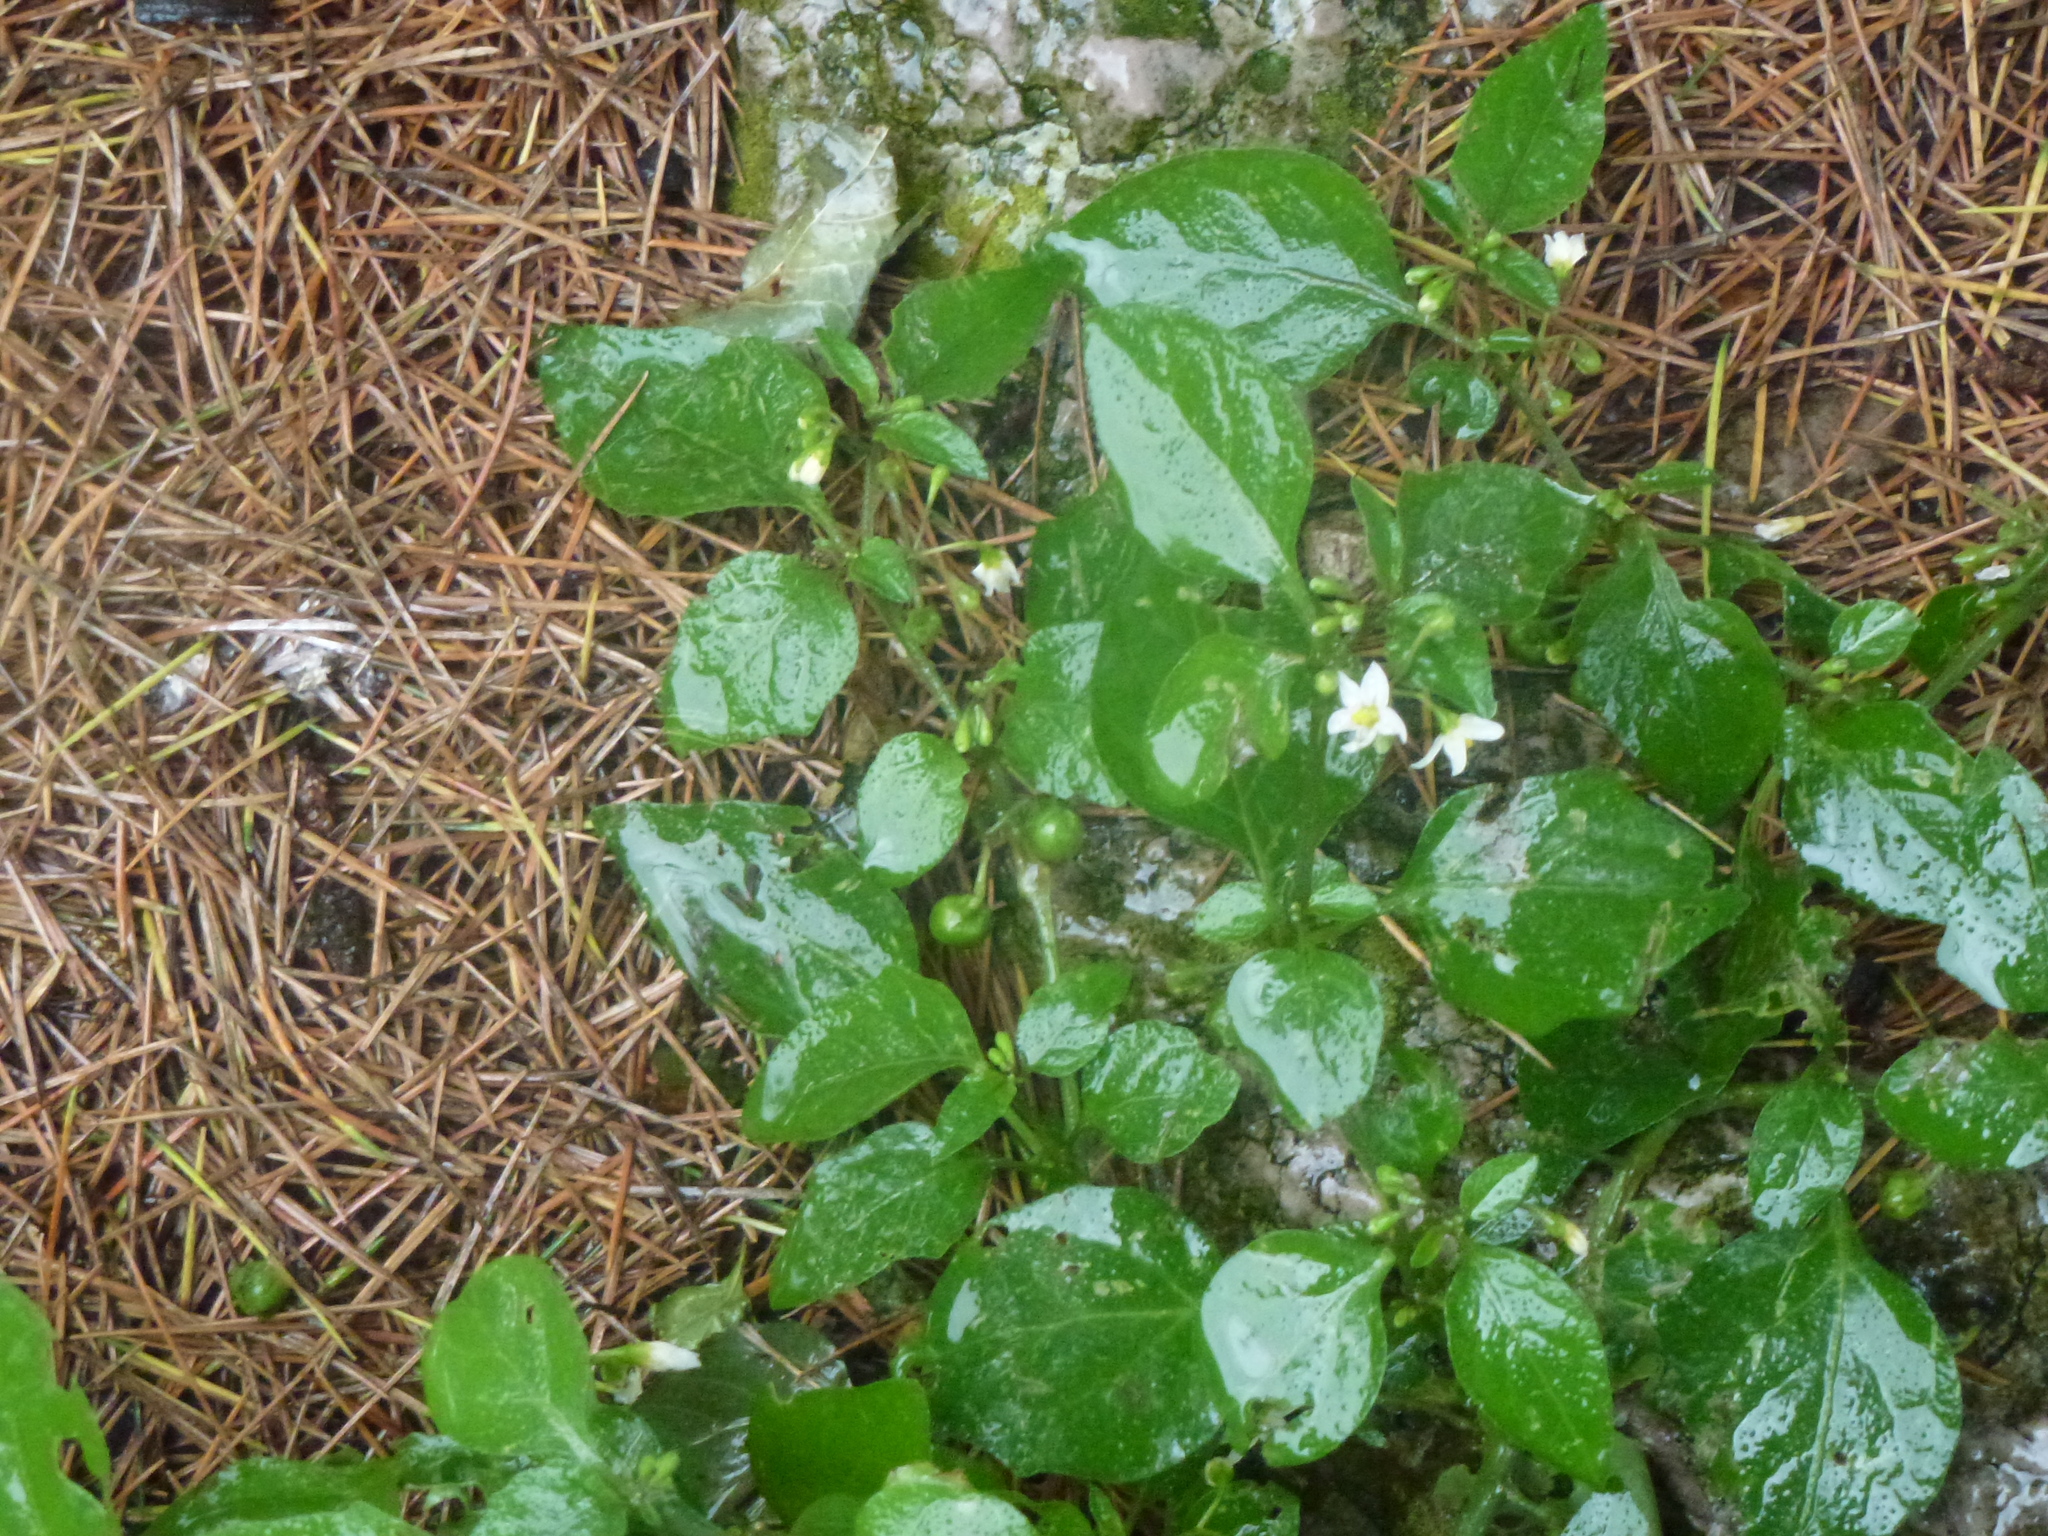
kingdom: Plantae
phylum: Tracheophyta
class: Magnoliopsida
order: Solanales
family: Solanaceae
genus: Solanum
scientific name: Solanum nigrum
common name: Black nightshade
